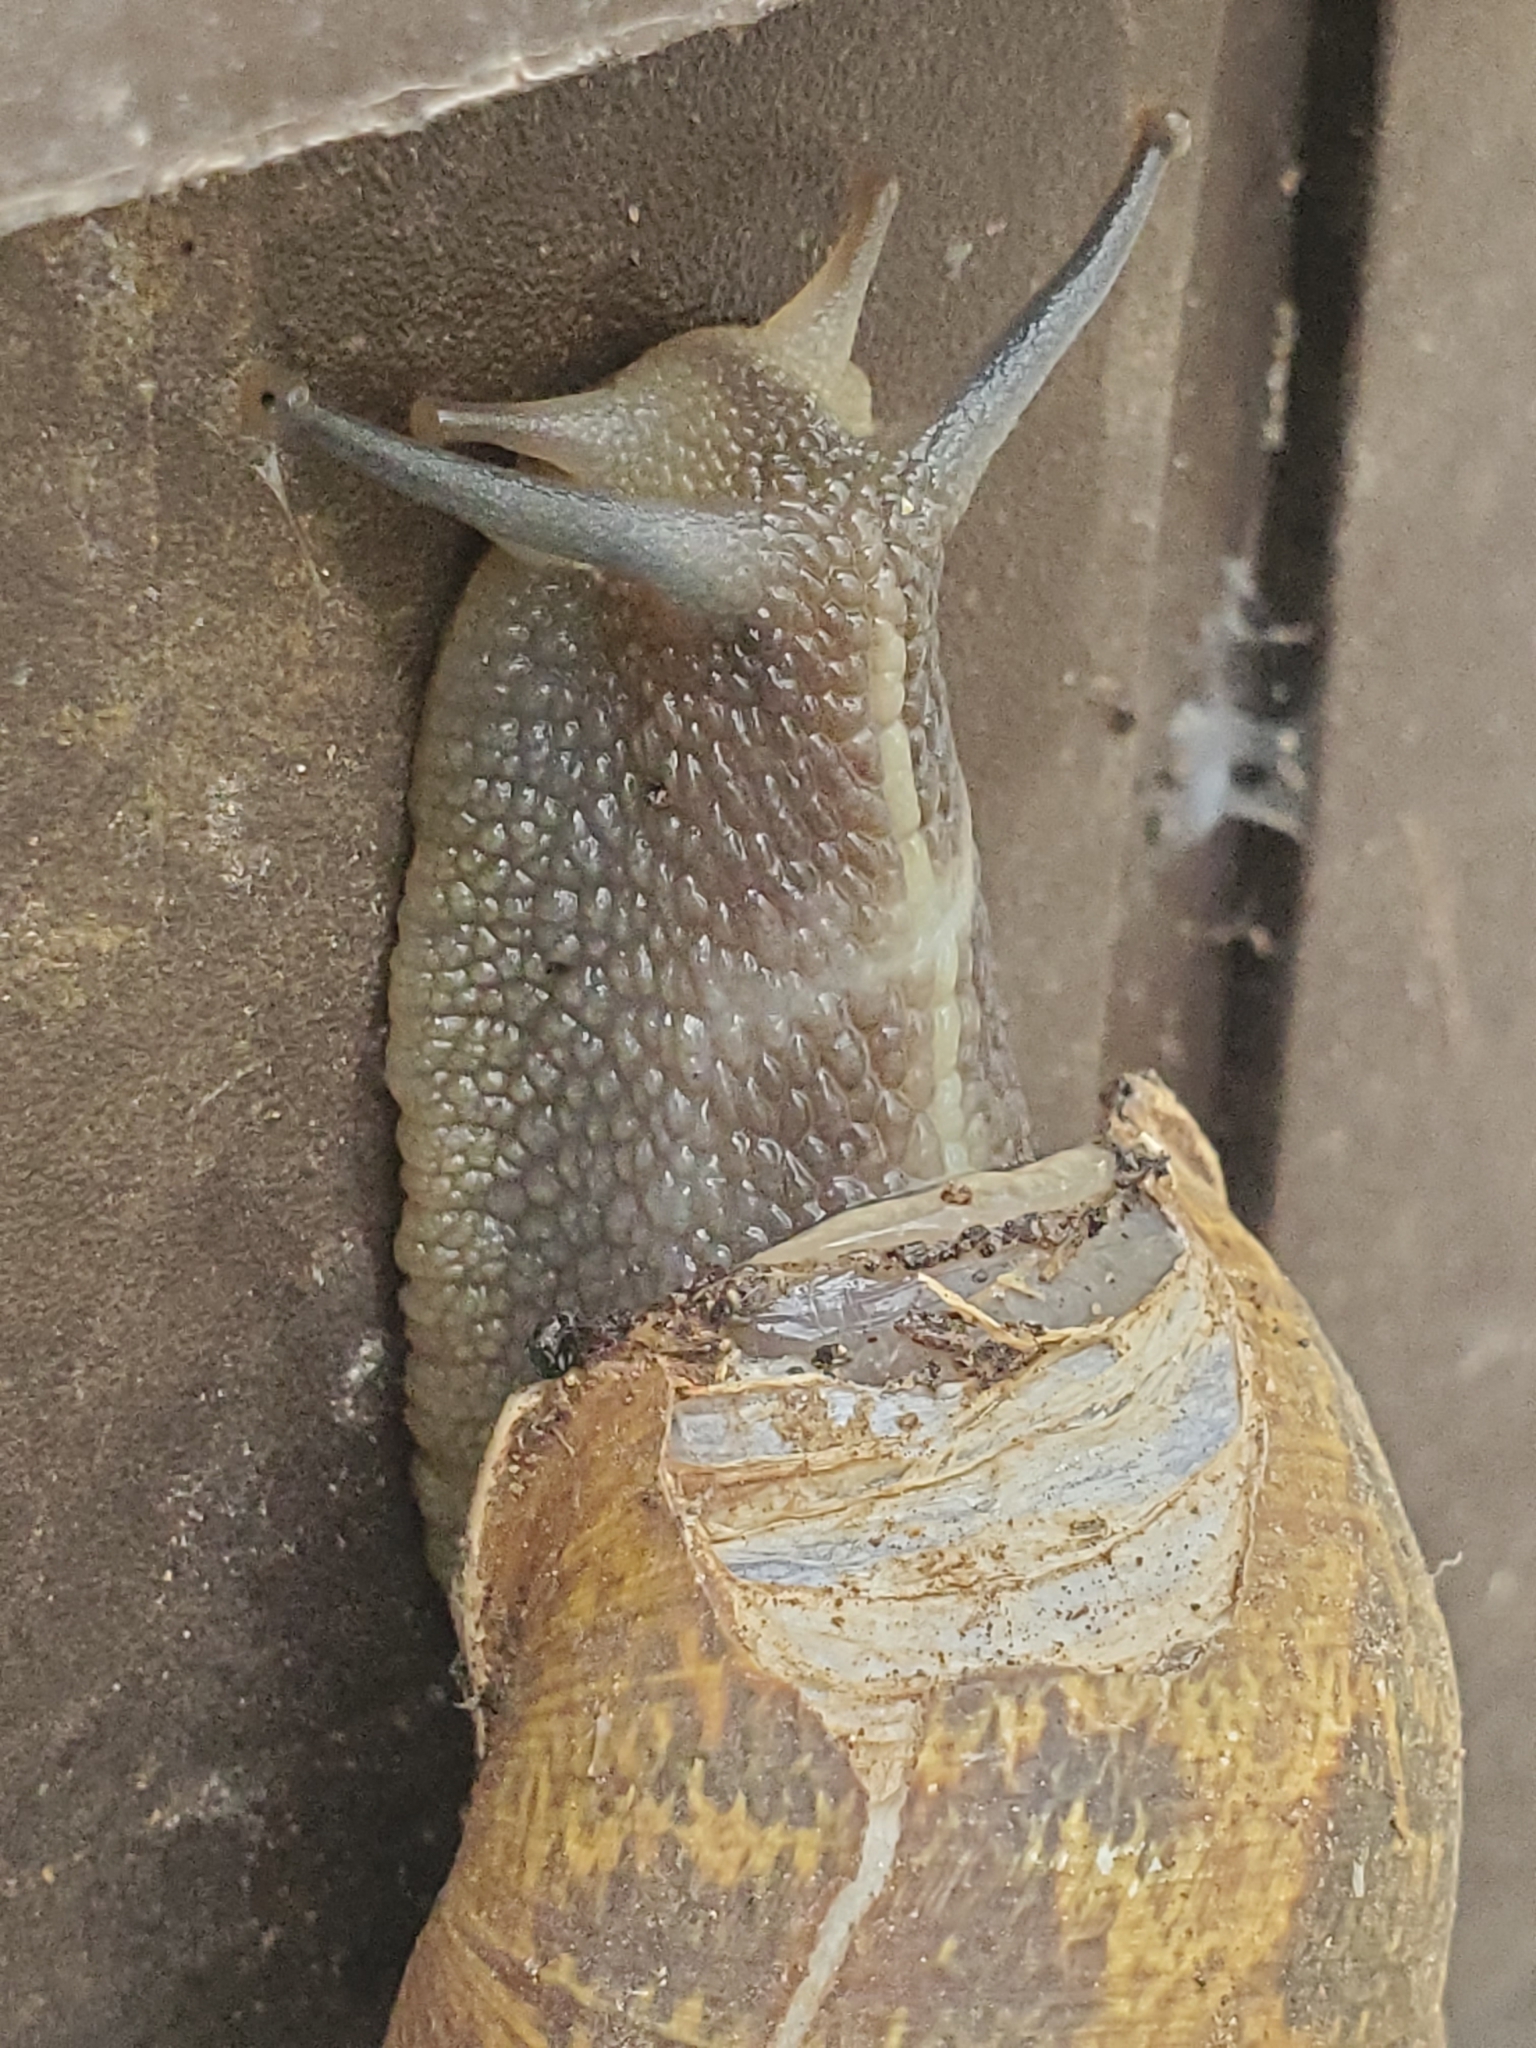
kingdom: Animalia
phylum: Mollusca
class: Gastropoda
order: Stylommatophora
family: Helicidae
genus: Cornu
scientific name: Cornu aspersum
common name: Brown garden snail
